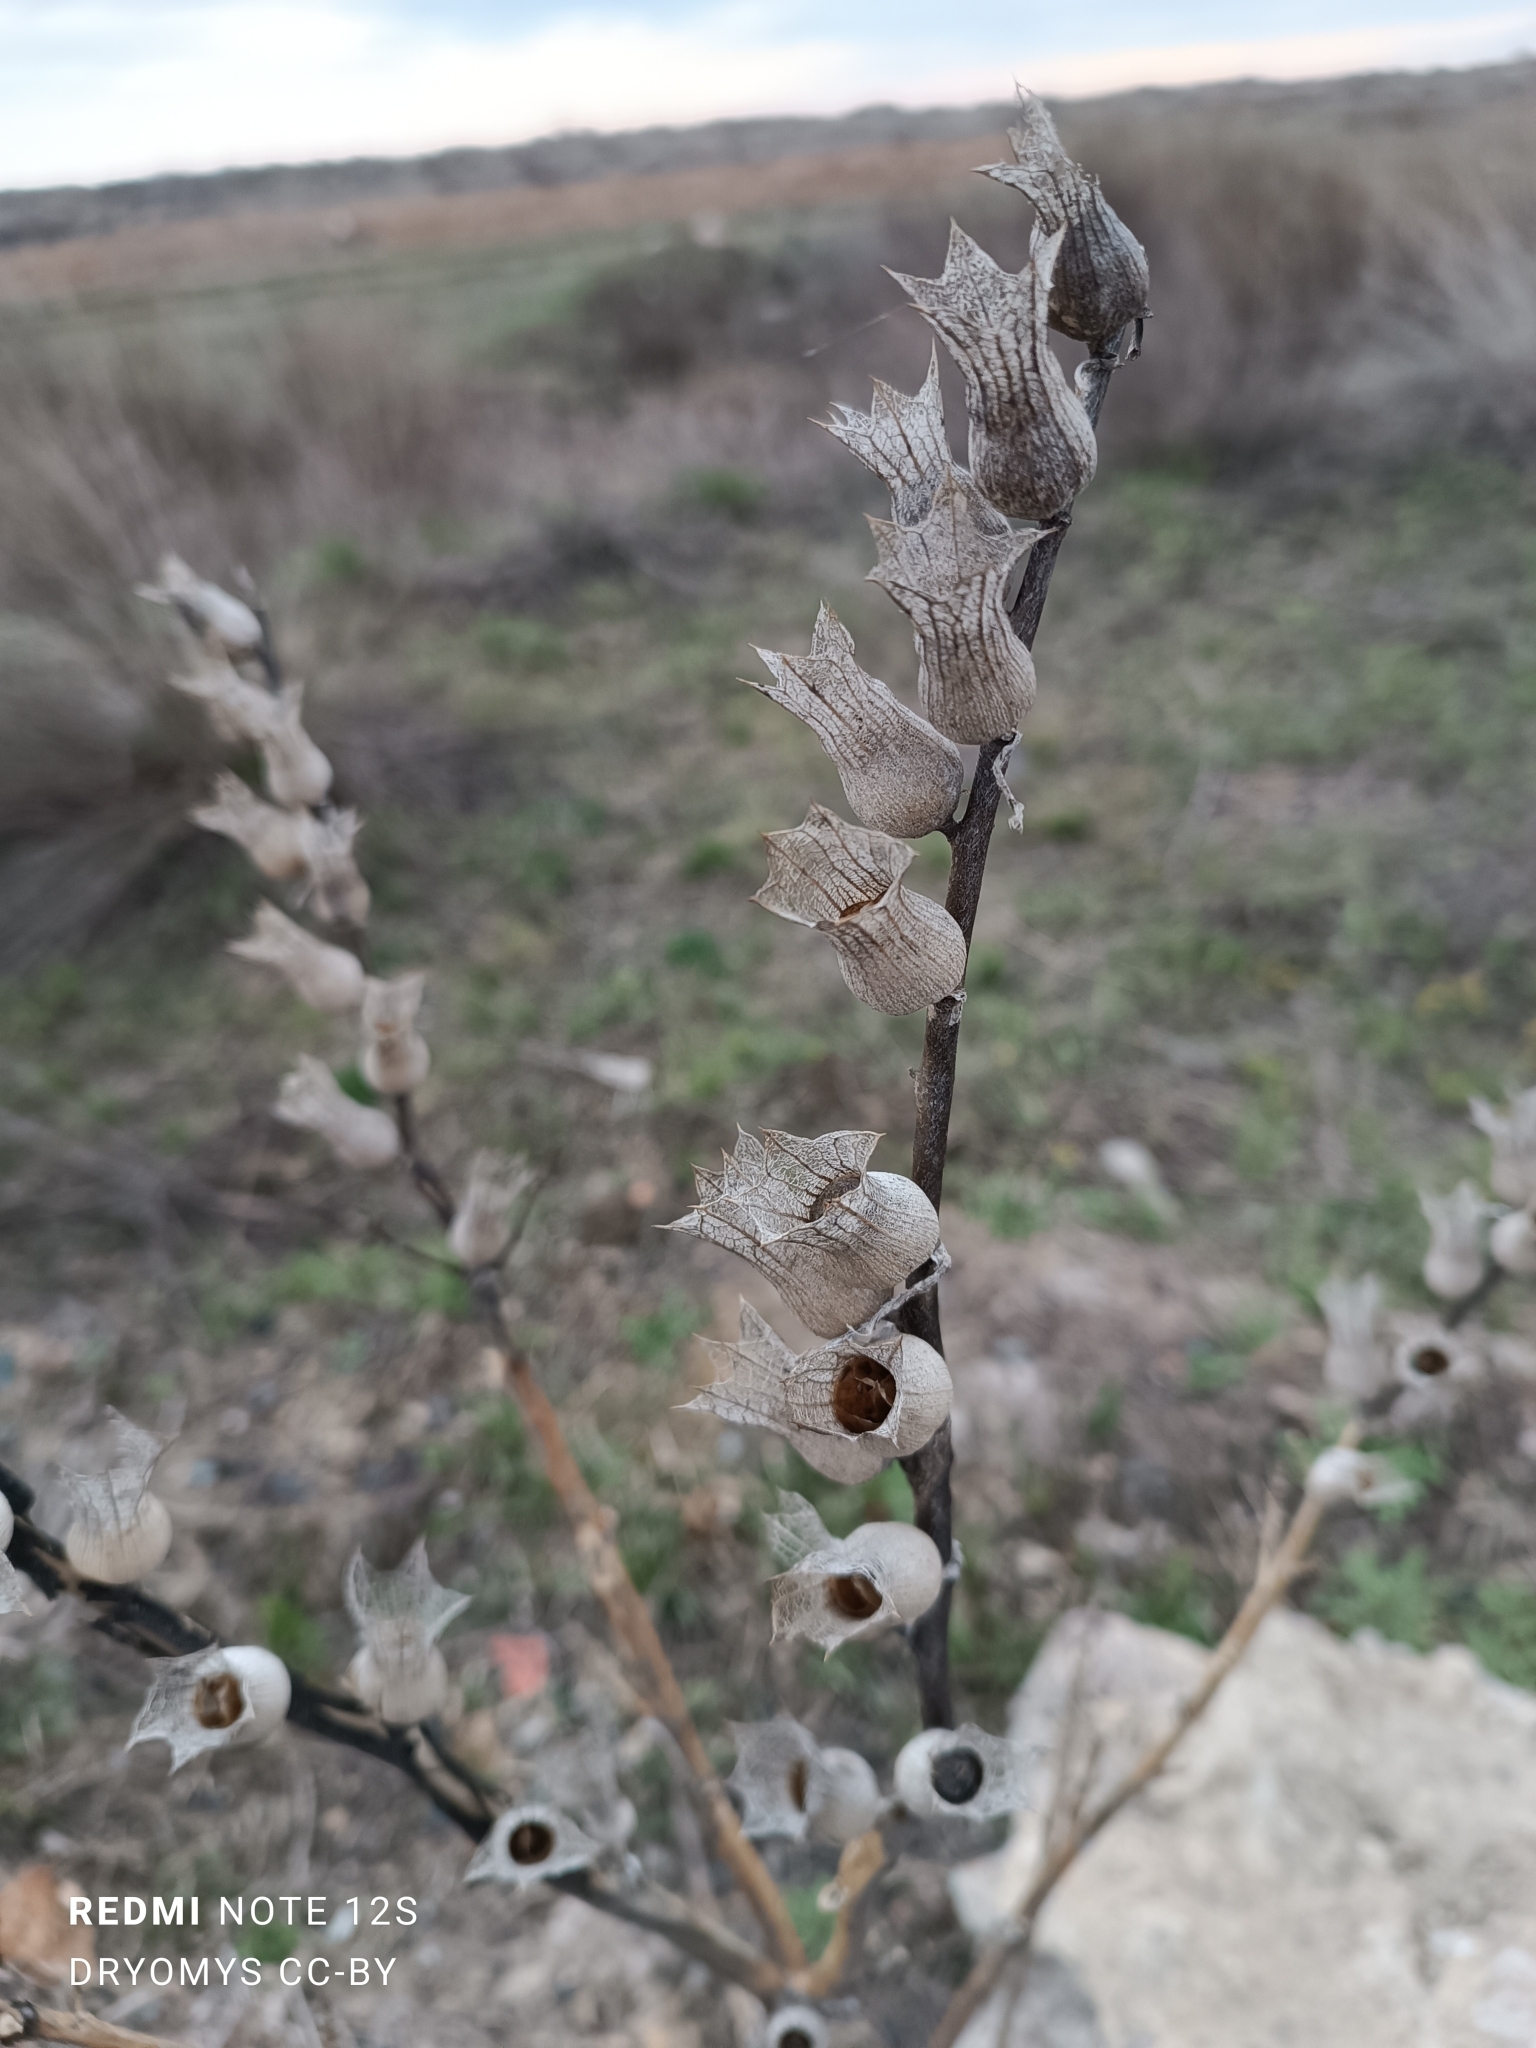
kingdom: Plantae
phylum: Tracheophyta
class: Magnoliopsida
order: Solanales
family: Solanaceae
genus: Hyoscyamus
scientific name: Hyoscyamus niger
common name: Henbane
